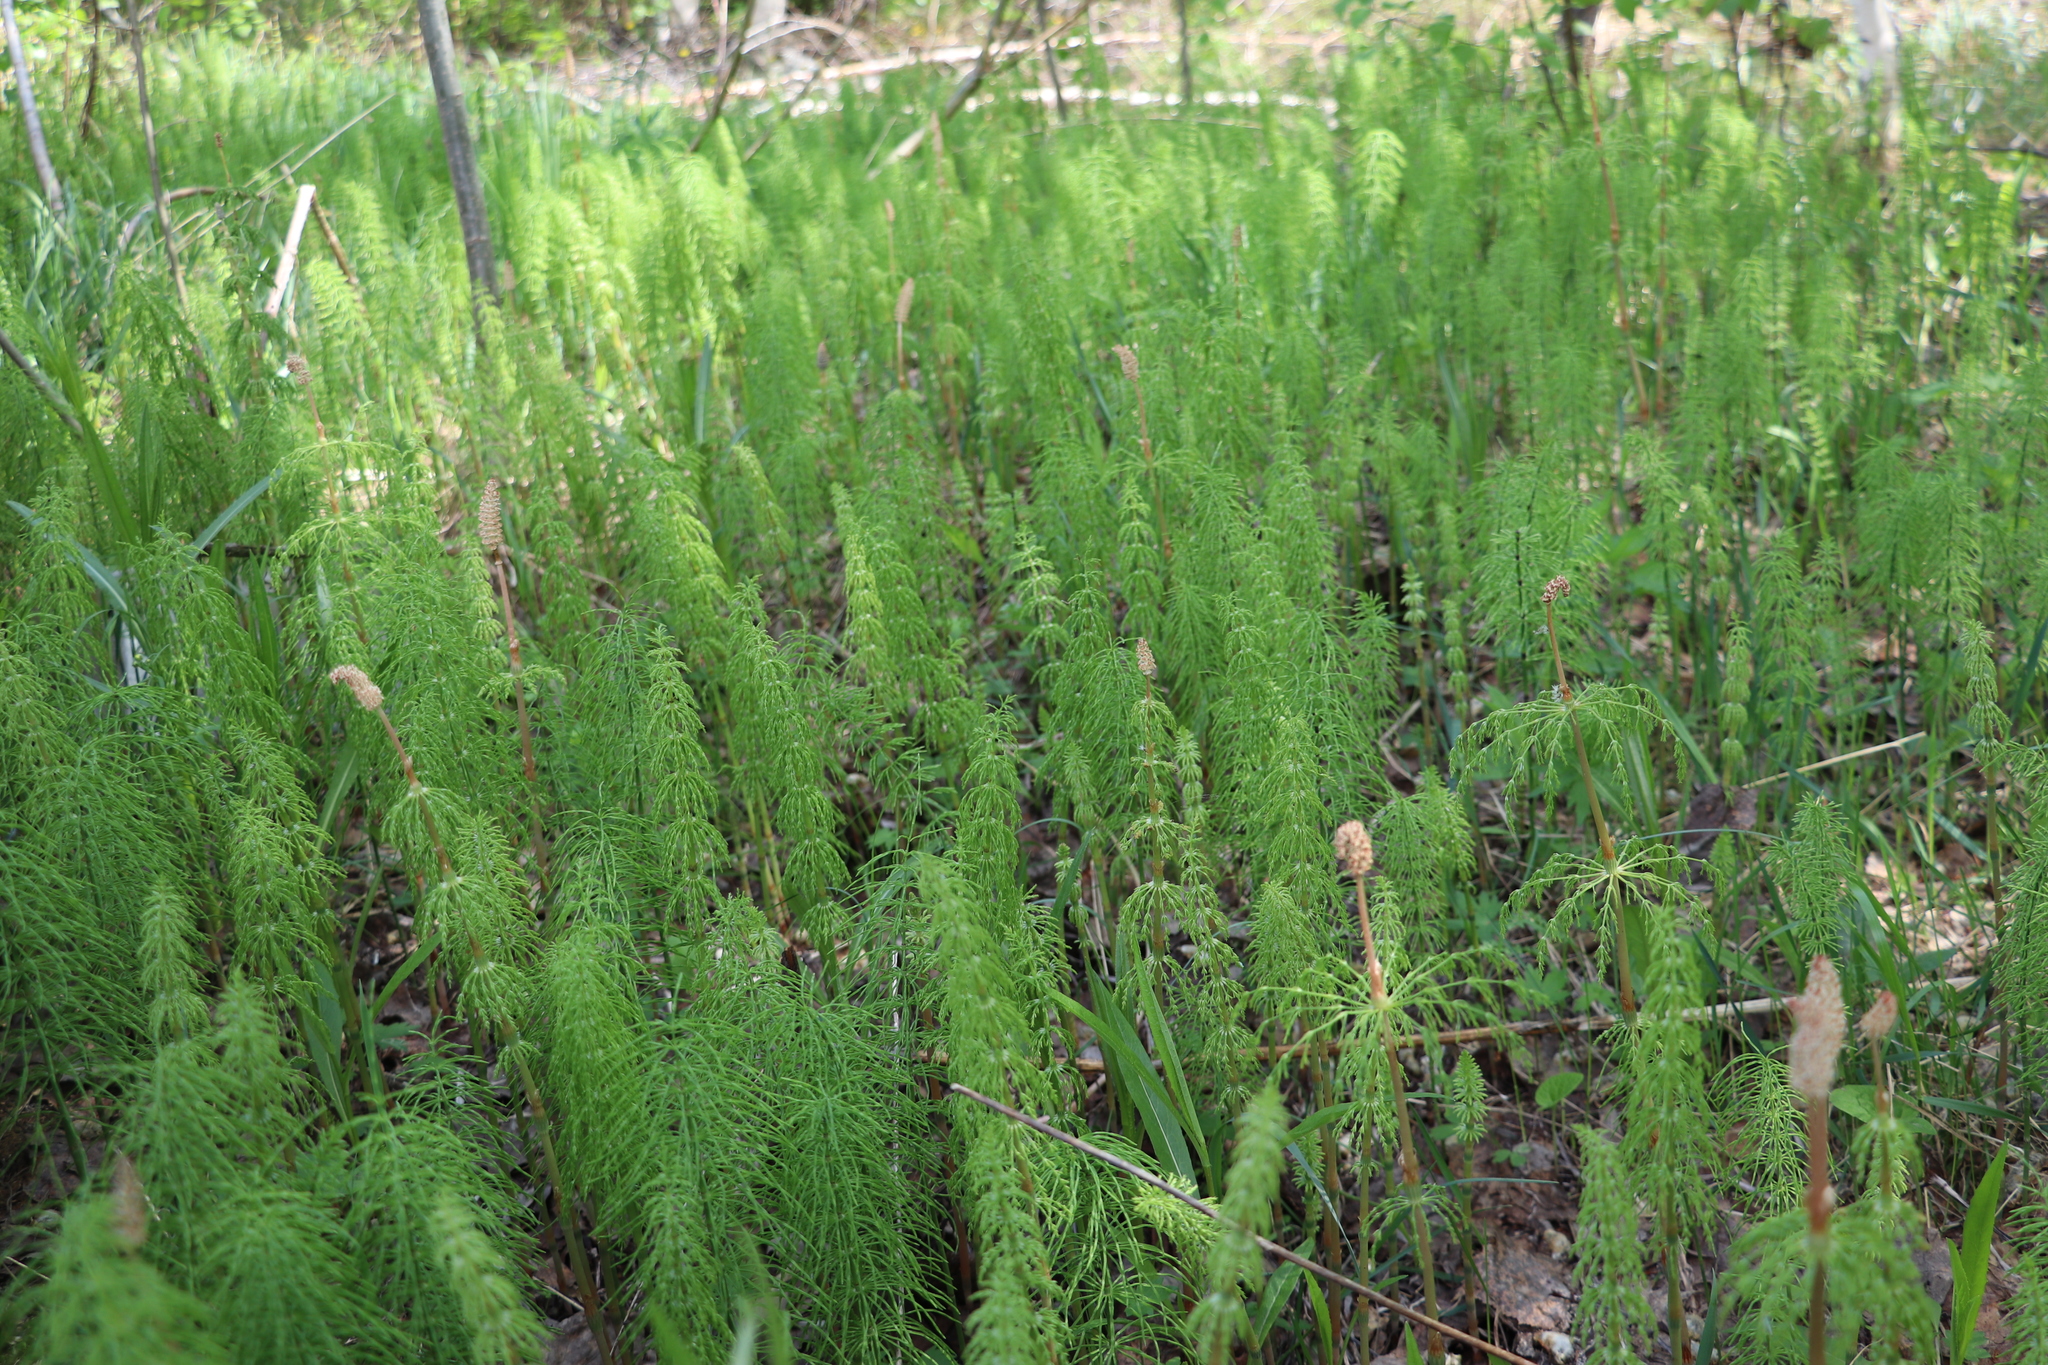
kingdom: Plantae
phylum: Tracheophyta
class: Polypodiopsida
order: Equisetales
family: Equisetaceae
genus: Equisetum
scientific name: Equisetum sylvaticum
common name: Wood horsetail
